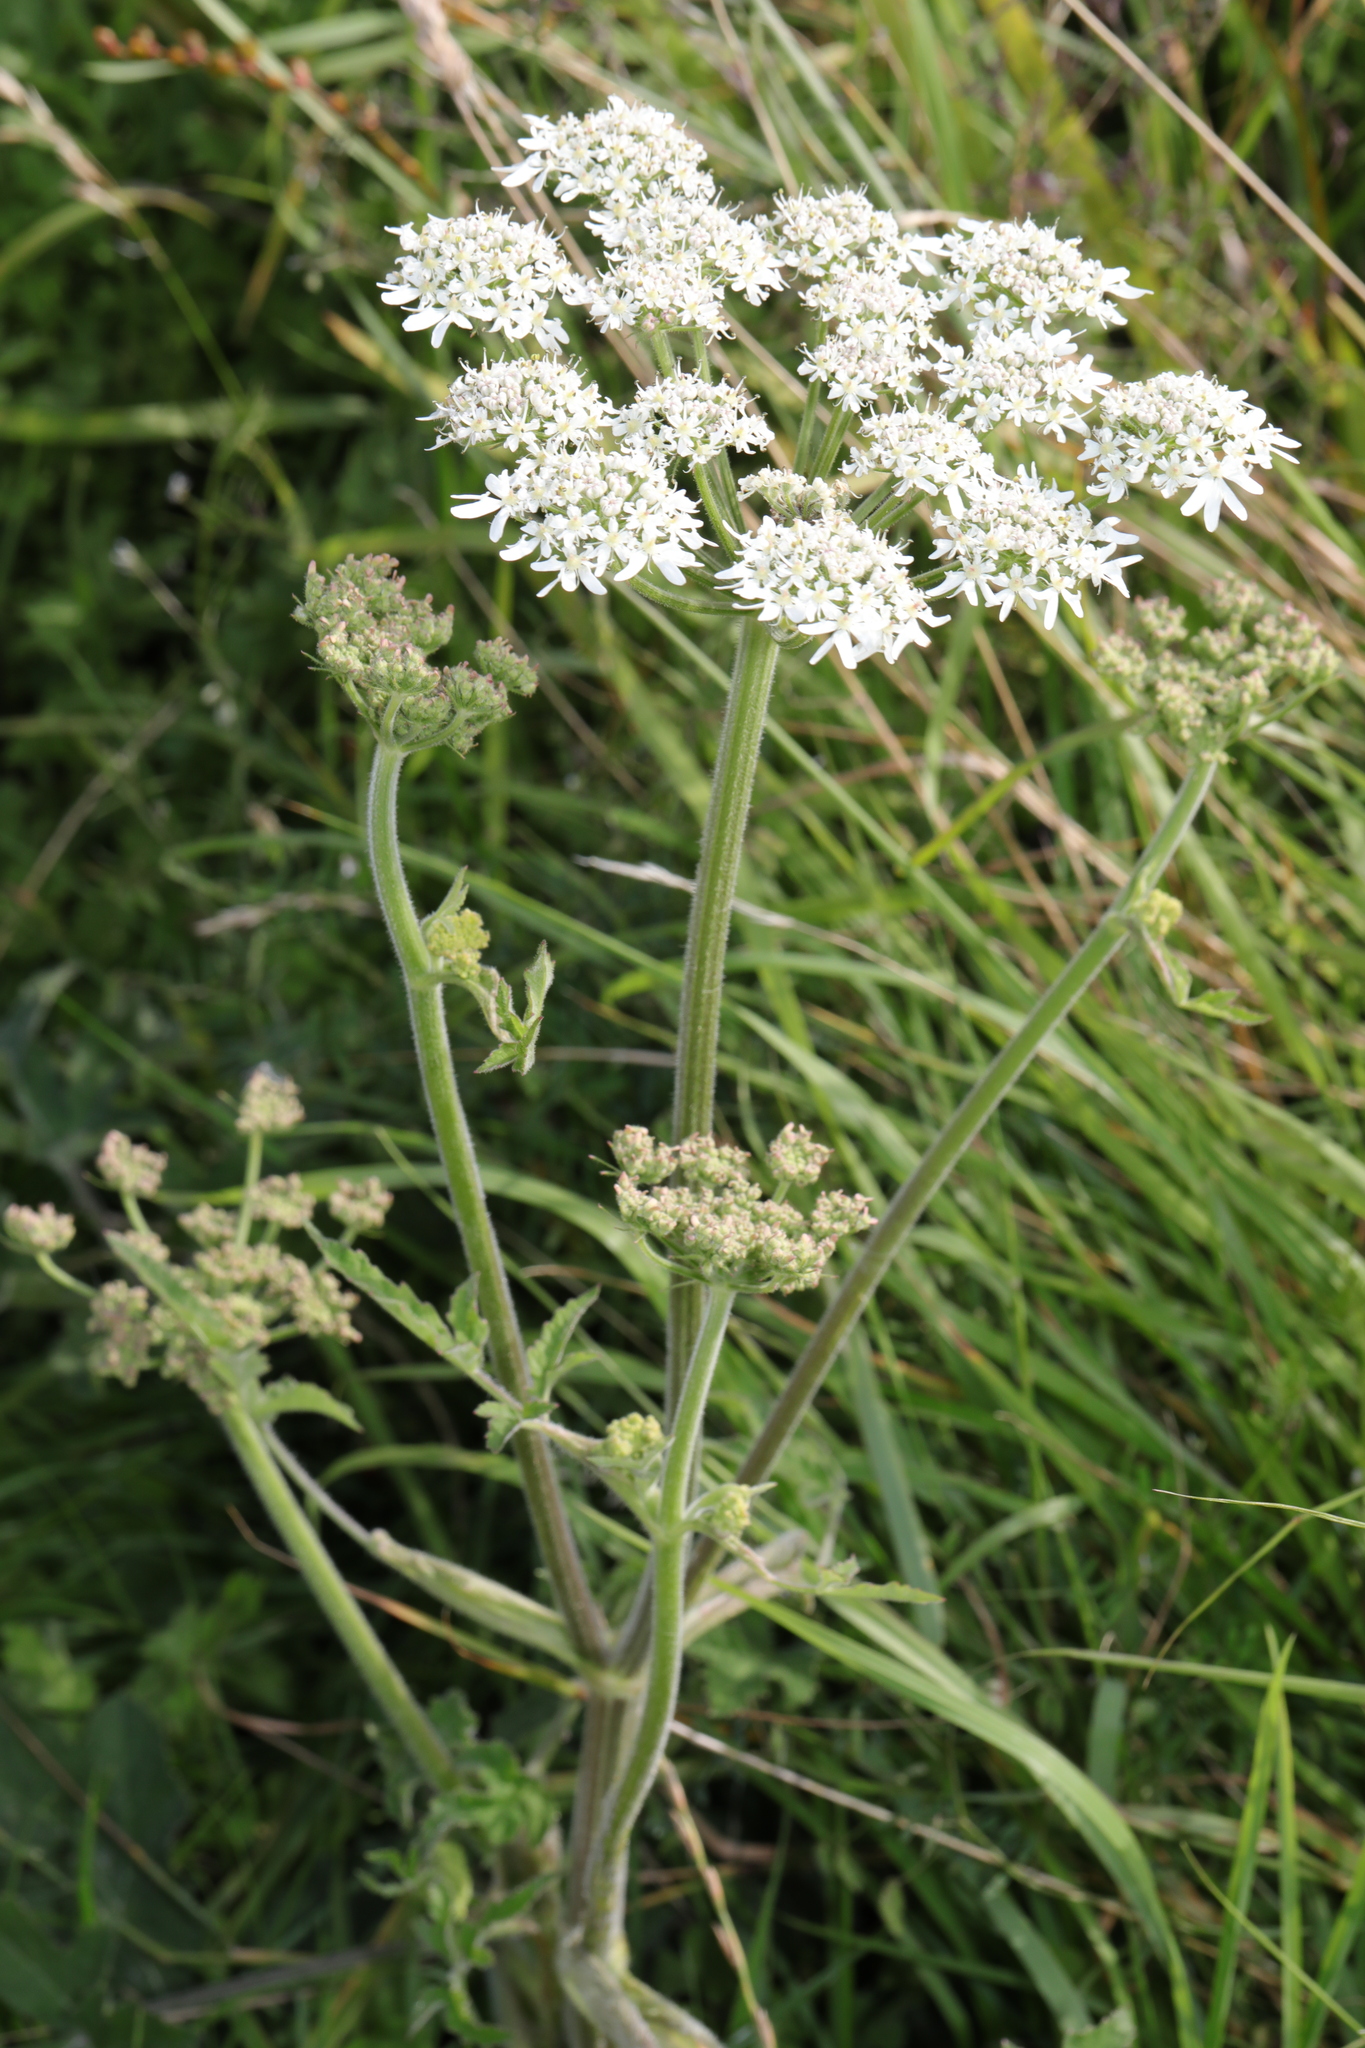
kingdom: Plantae
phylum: Tracheophyta
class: Magnoliopsida
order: Apiales
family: Apiaceae
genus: Heracleum
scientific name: Heracleum sphondylium
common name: Hogweed
